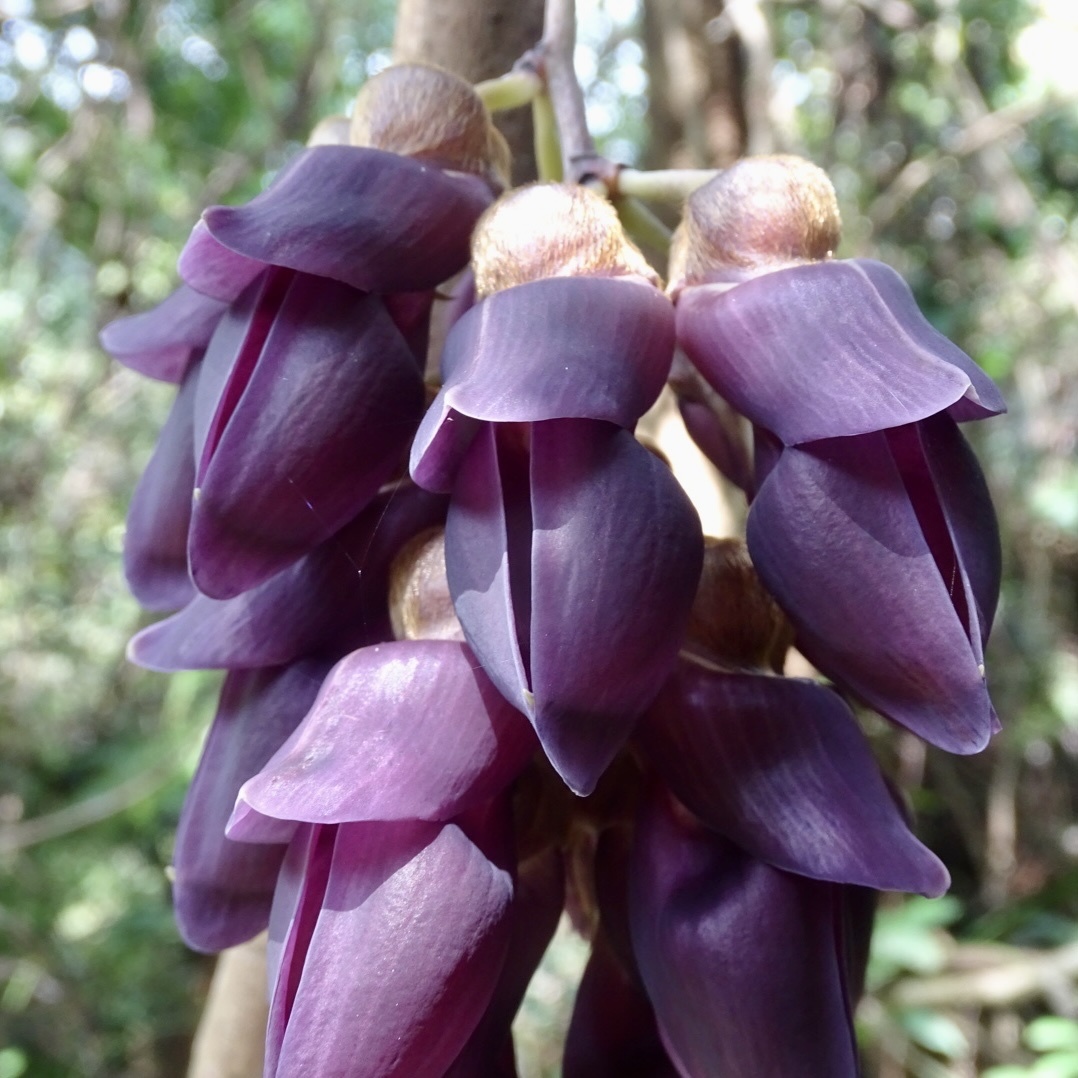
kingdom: Plantae
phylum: Tracheophyta
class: Magnoliopsida
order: Fabales
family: Fabaceae
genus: Mucuna
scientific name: Mucuna hainanensis
